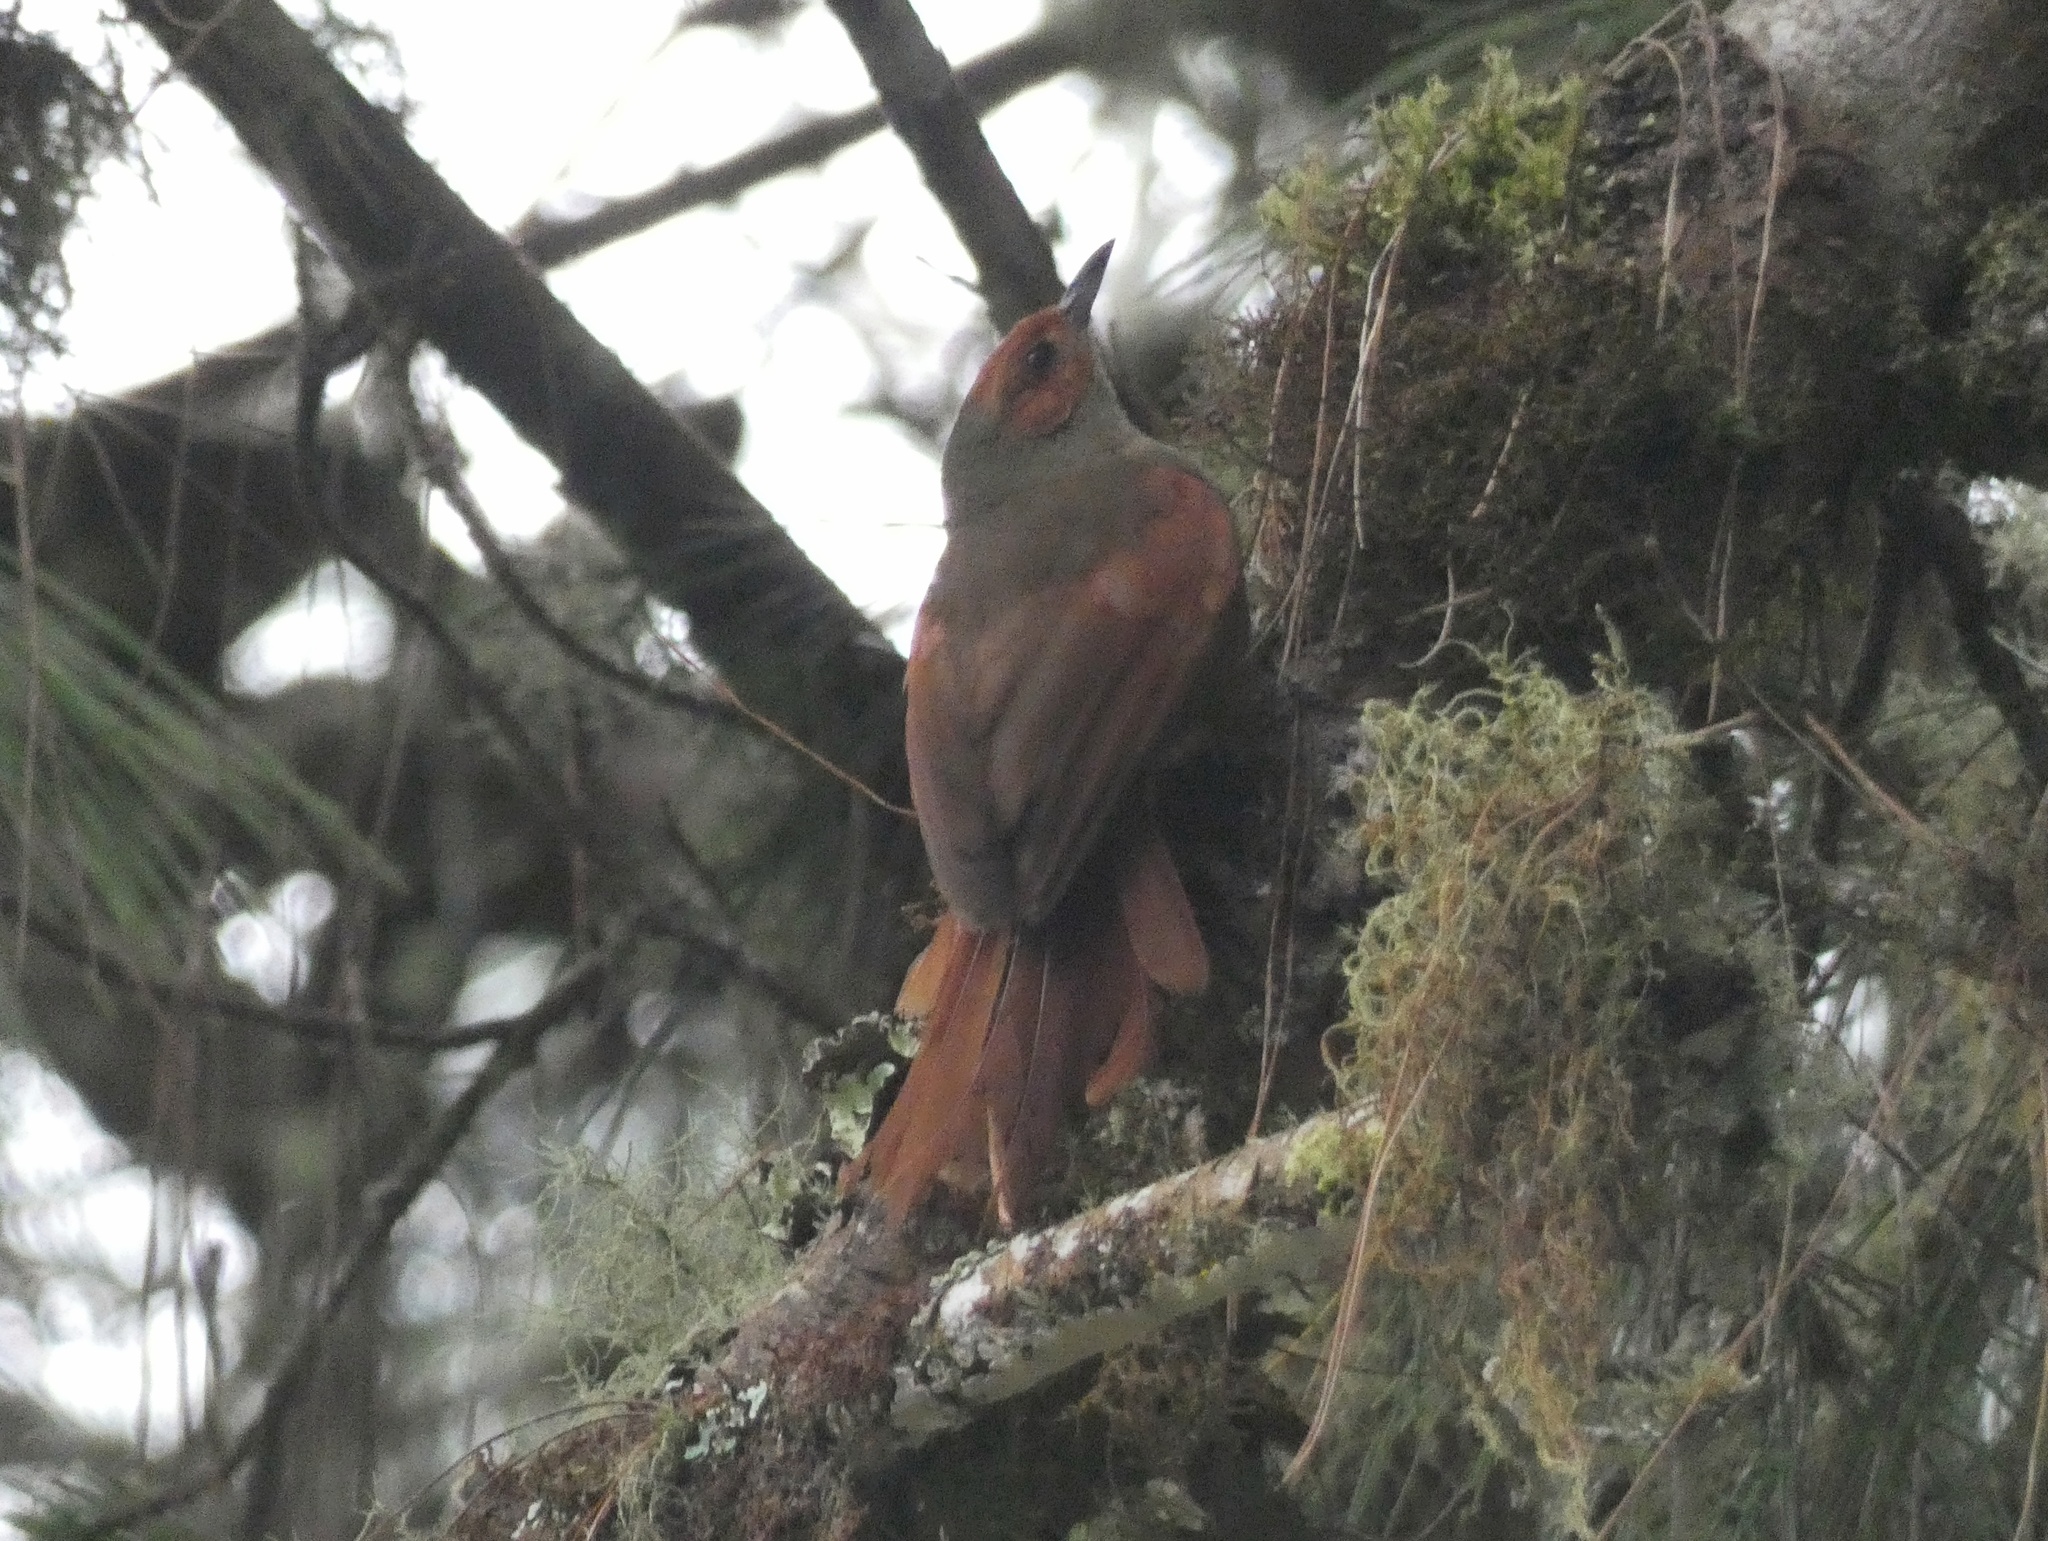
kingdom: Animalia
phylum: Chordata
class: Aves
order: Passeriformes
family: Furnariidae
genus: Cranioleuca
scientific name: Cranioleuca erythrops
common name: Red-faced spinetail
